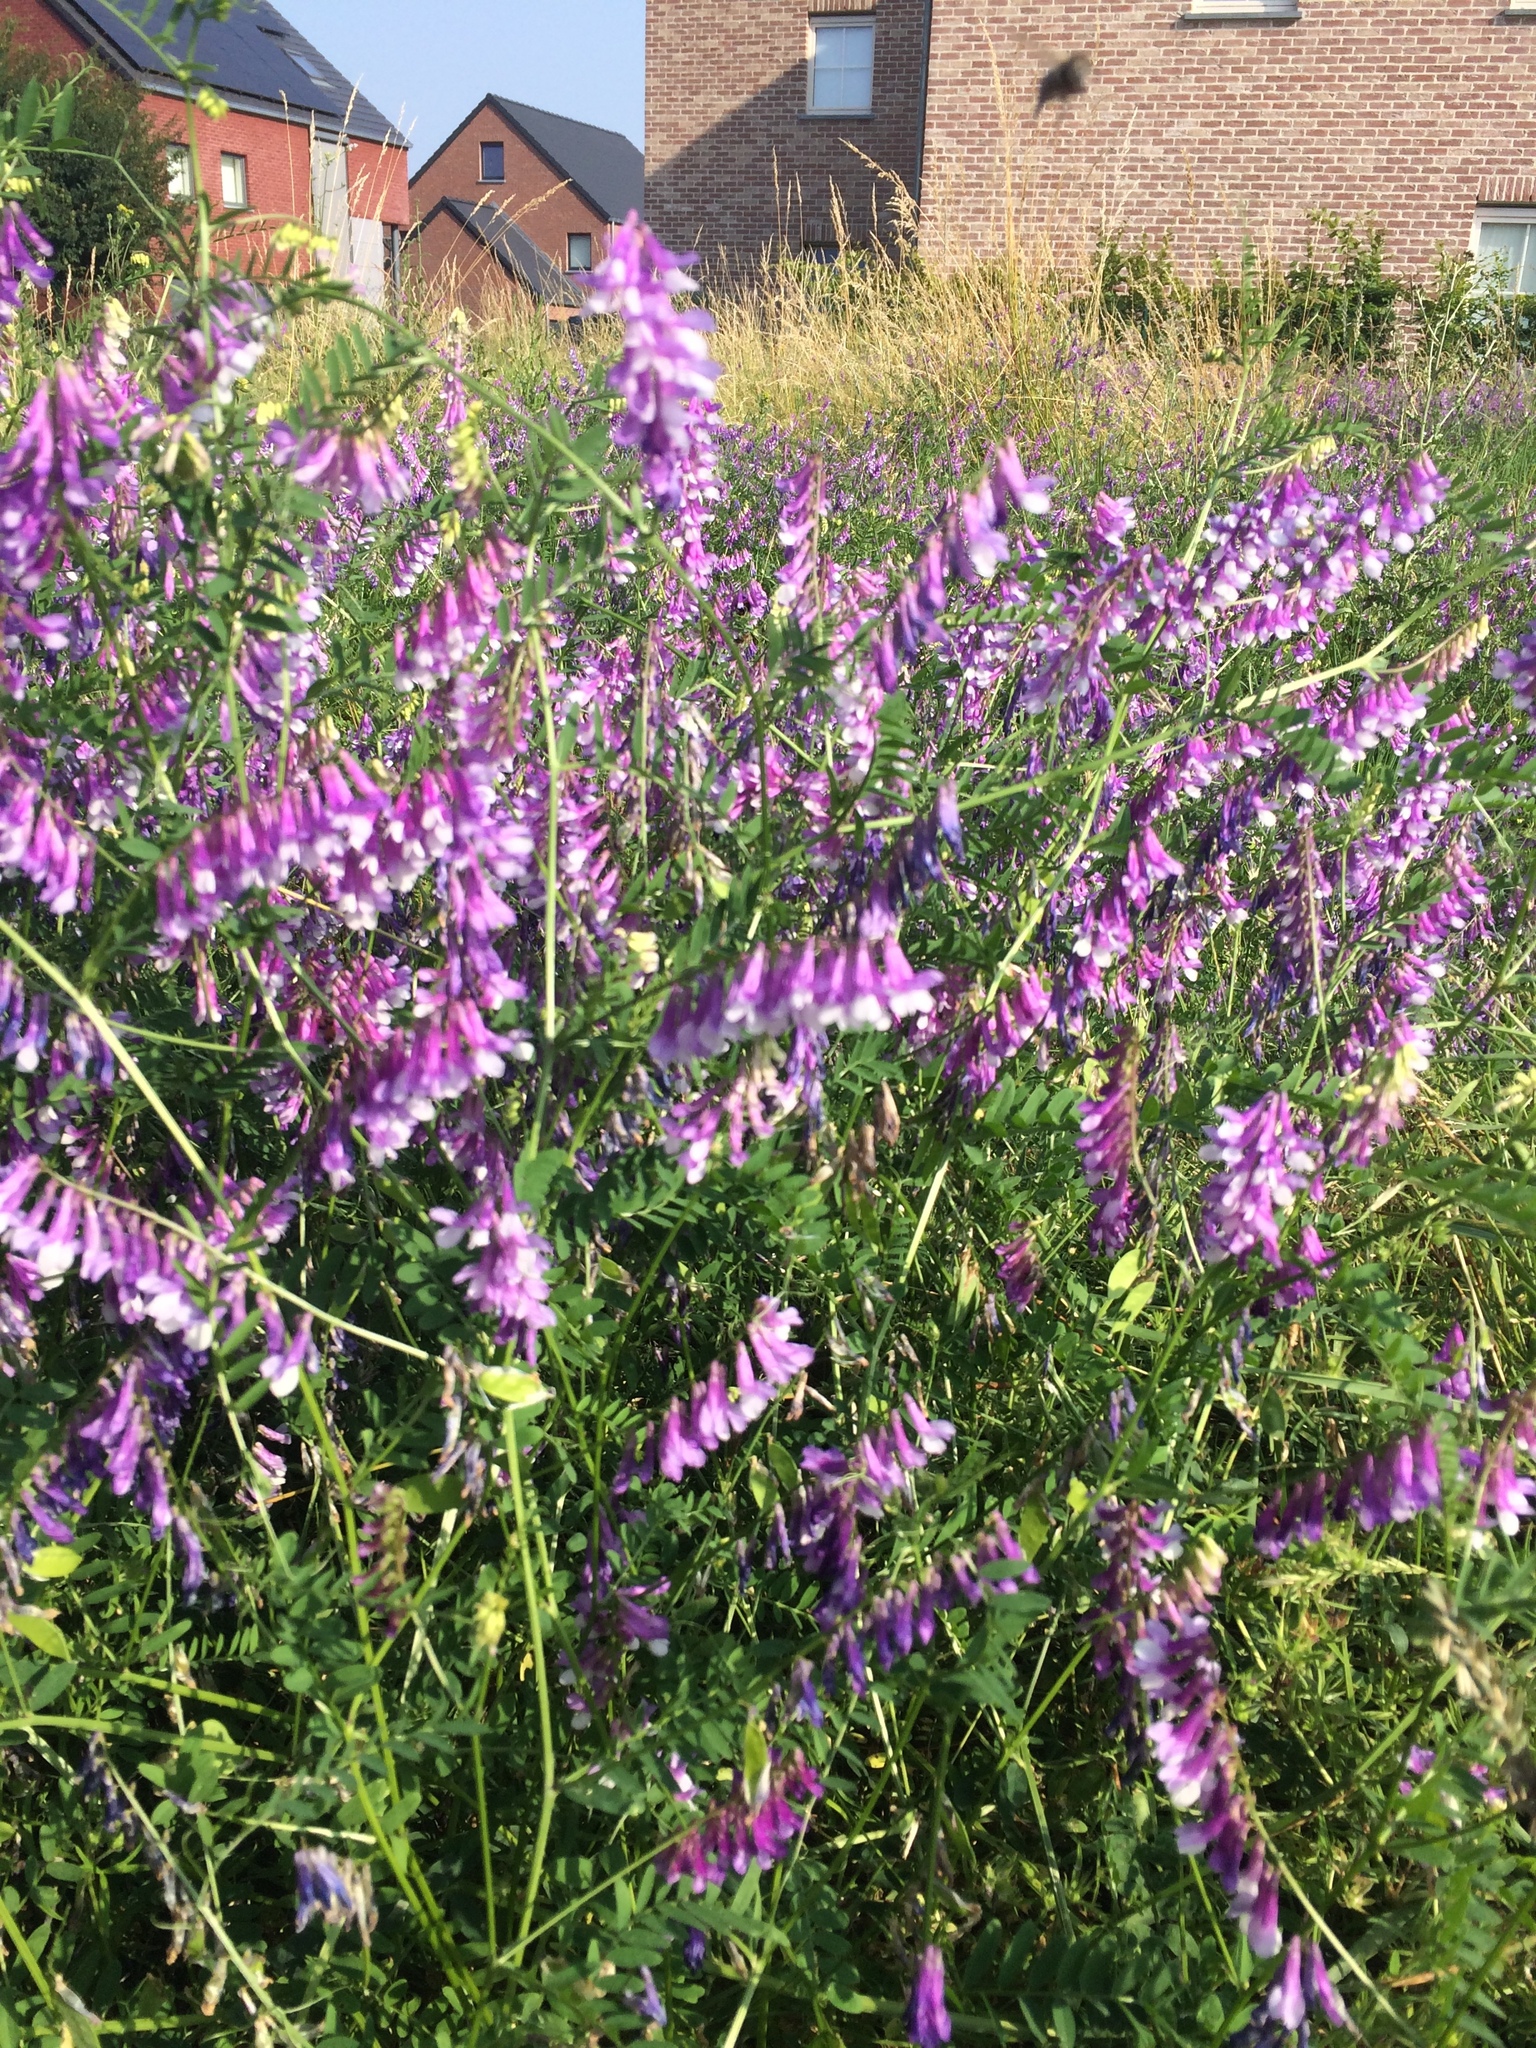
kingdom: Plantae
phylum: Tracheophyta
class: Magnoliopsida
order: Fabales
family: Fabaceae
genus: Vicia
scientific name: Vicia villosa
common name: Fodder vetch
